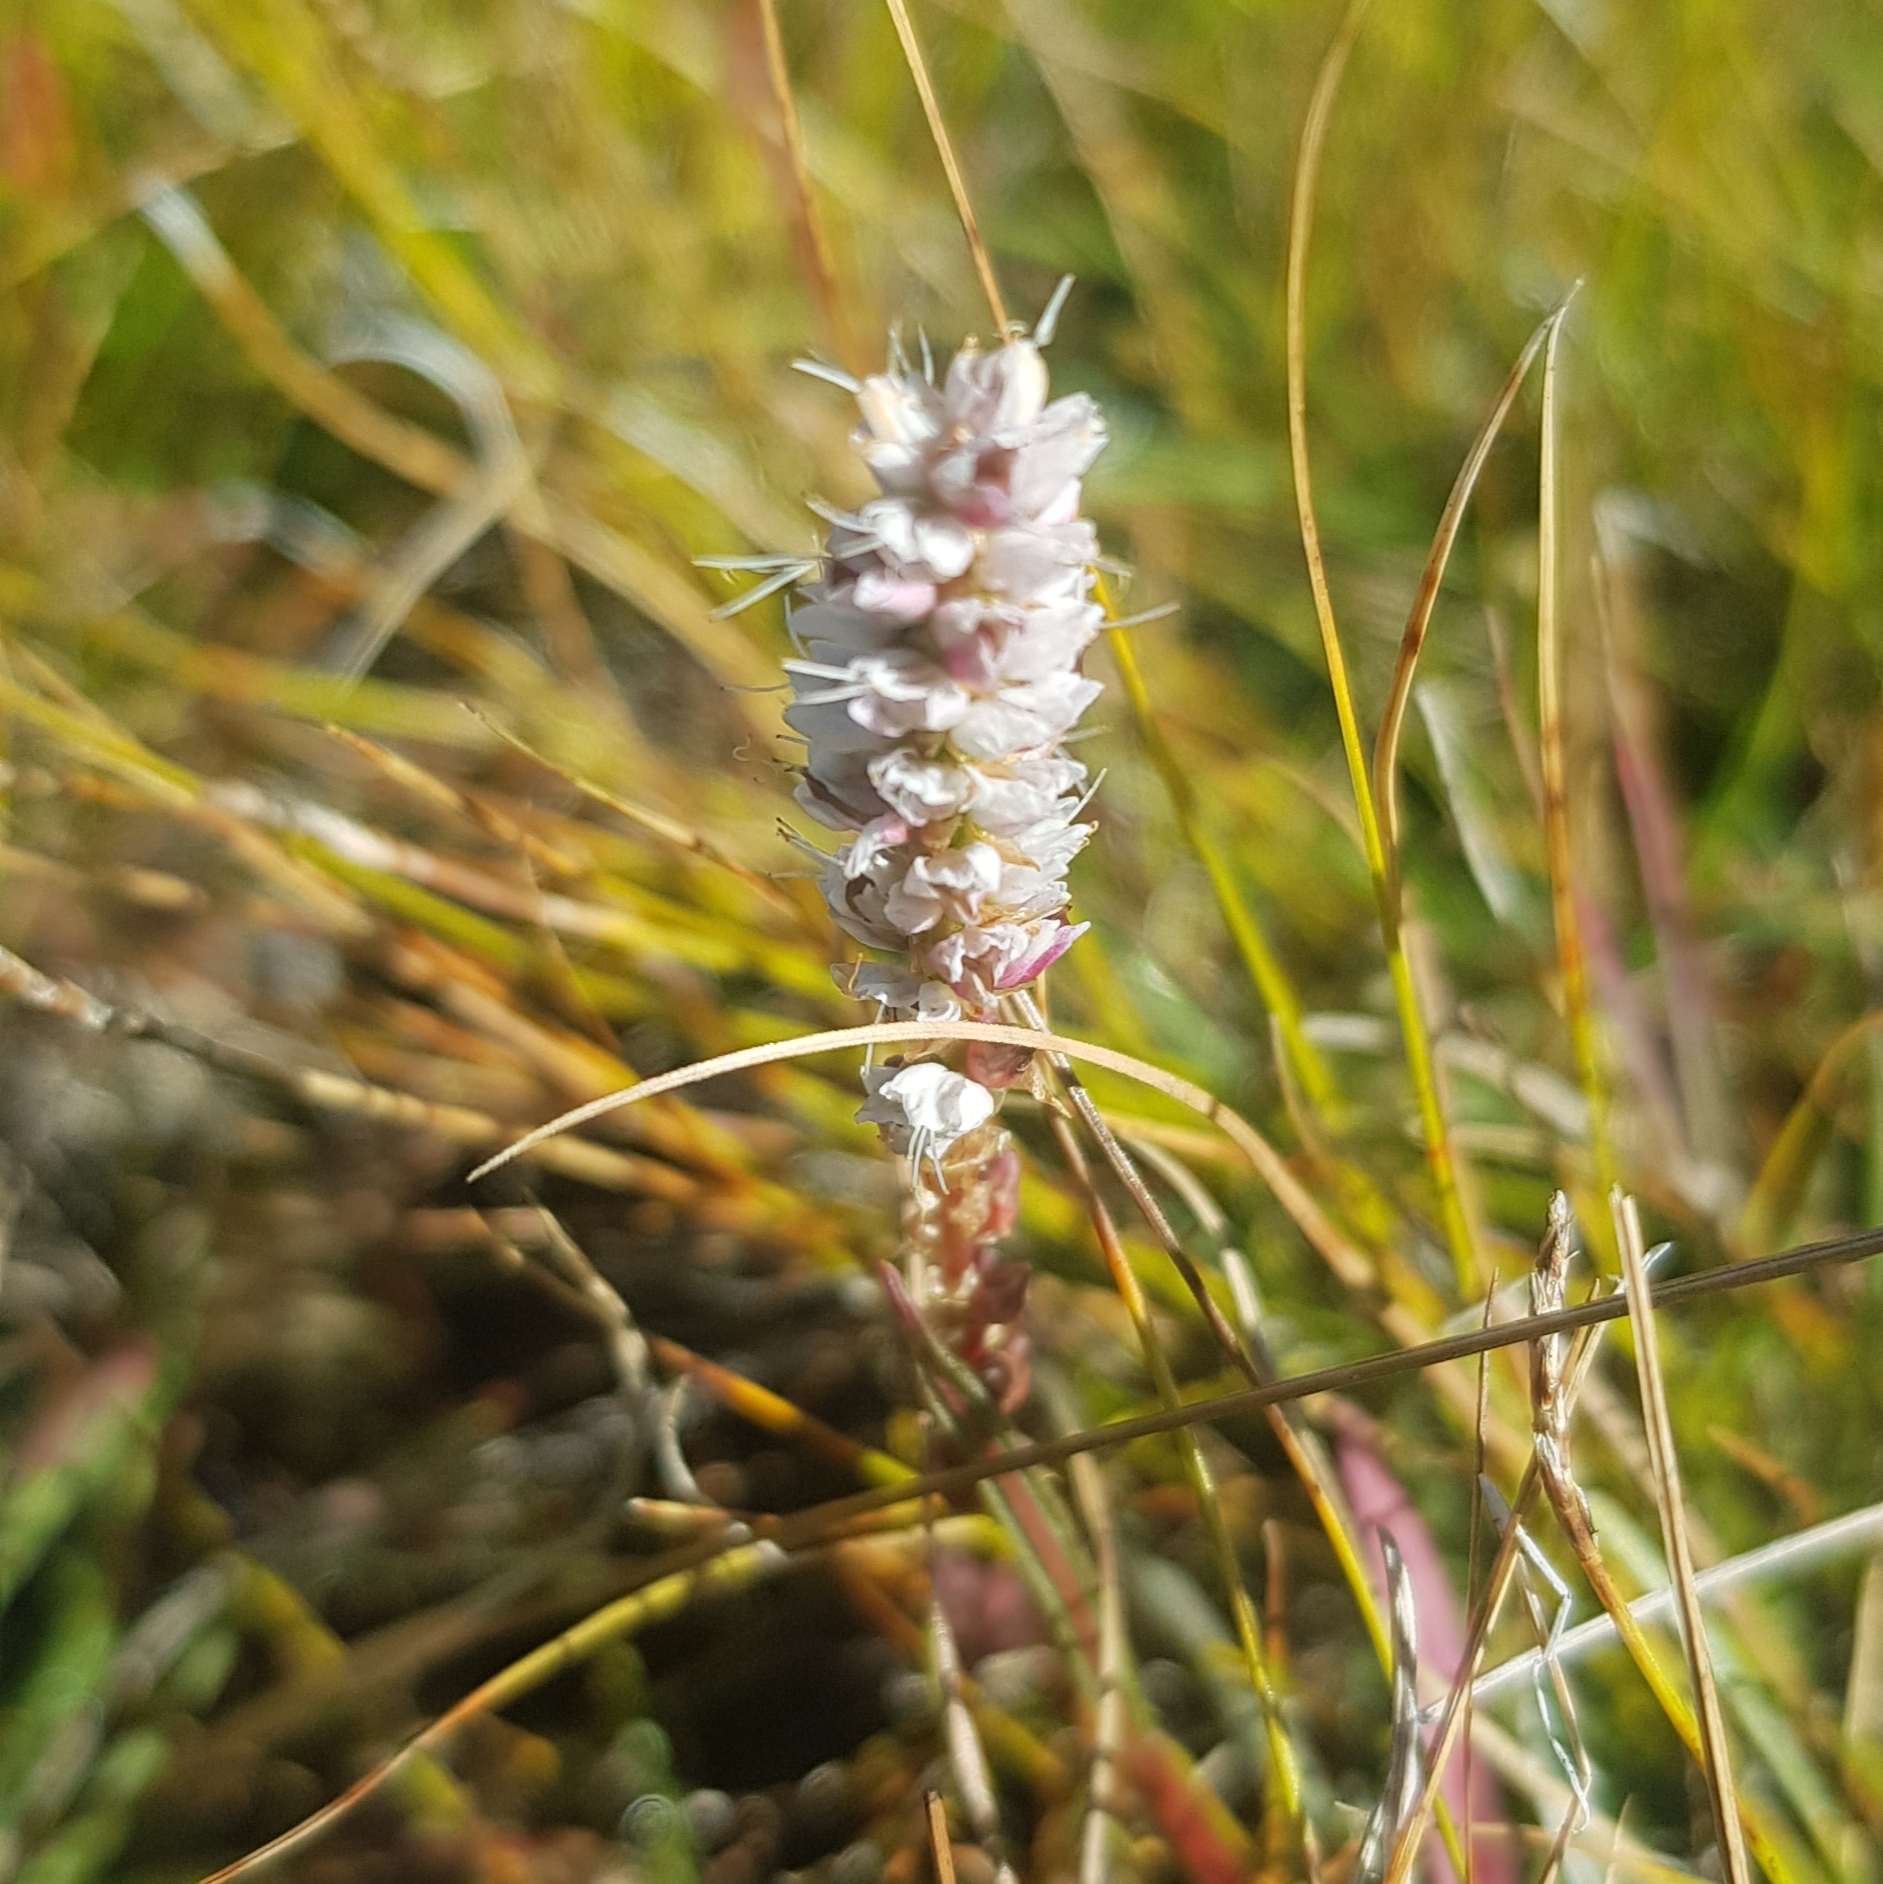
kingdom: Plantae
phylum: Tracheophyta
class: Magnoliopsida
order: Caryophyllales
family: Polygonaceae
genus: Bistorta
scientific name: Bistorta vivipara
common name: Alpine bistort
